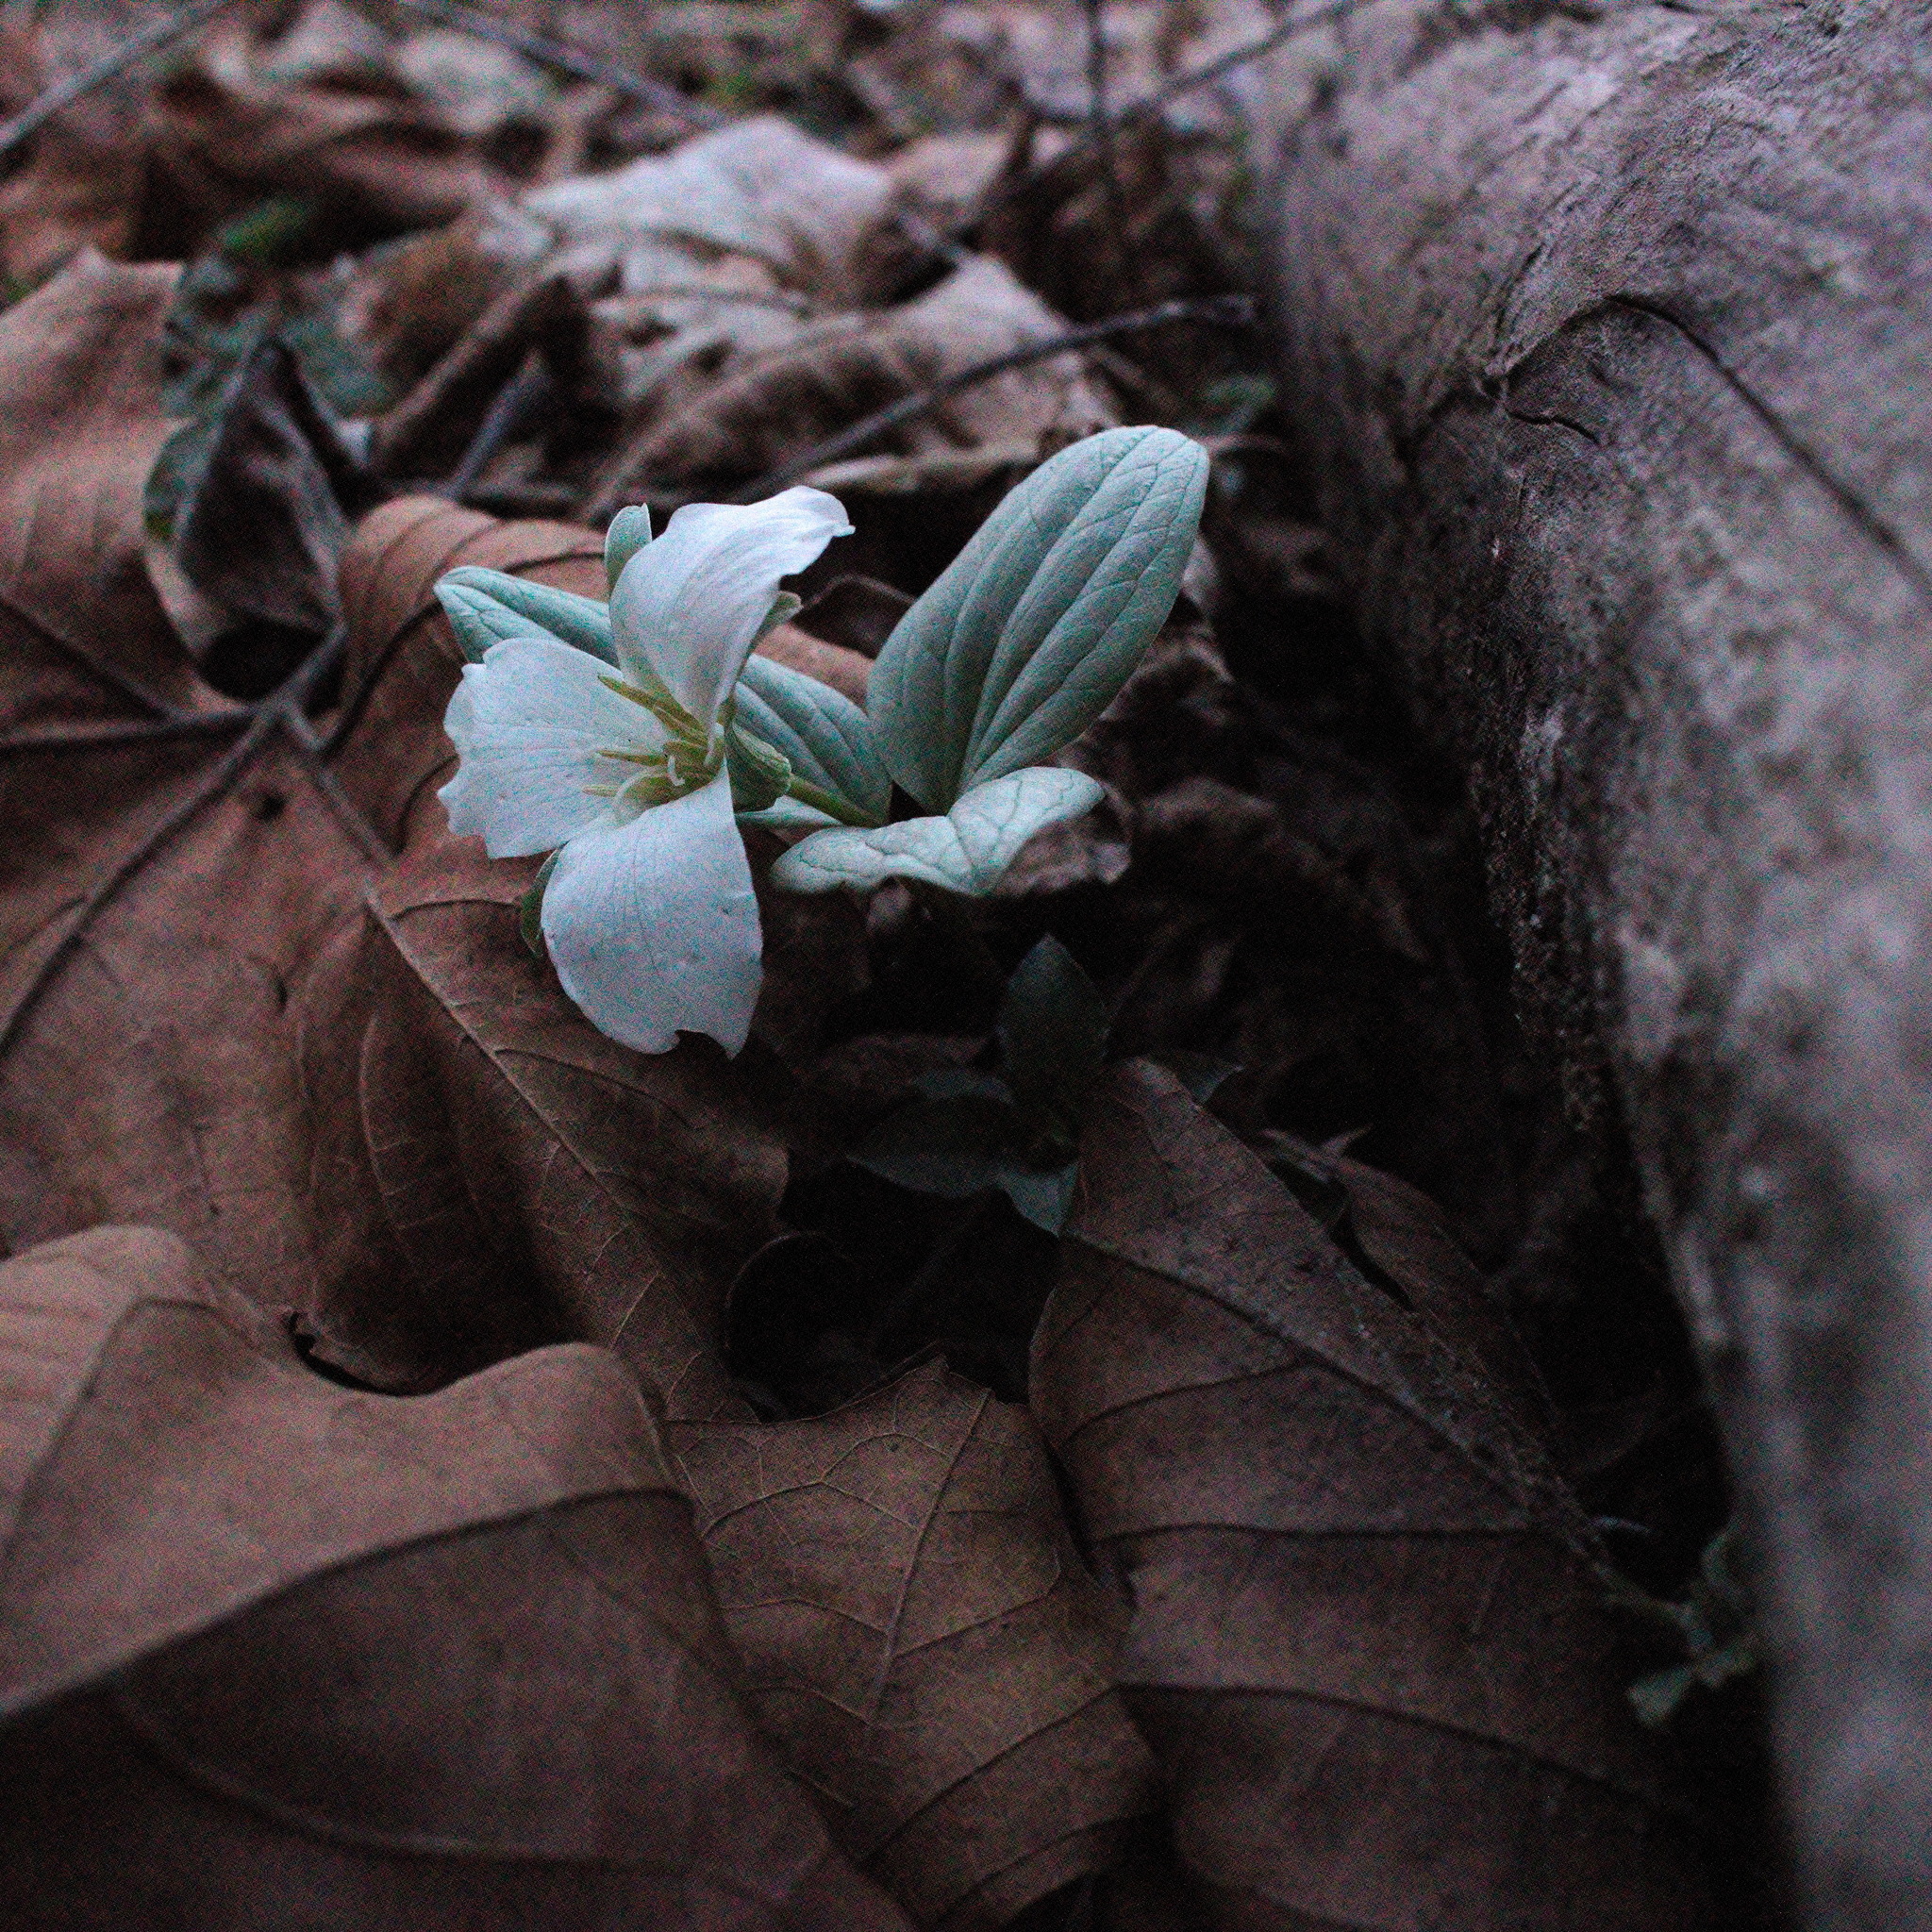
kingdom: Plantae
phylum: Tracheophyta
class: Liliopsida
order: Liliales
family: Melanthiaceae
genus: Trillium
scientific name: Trillium nivale
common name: Dwarf white trillium
